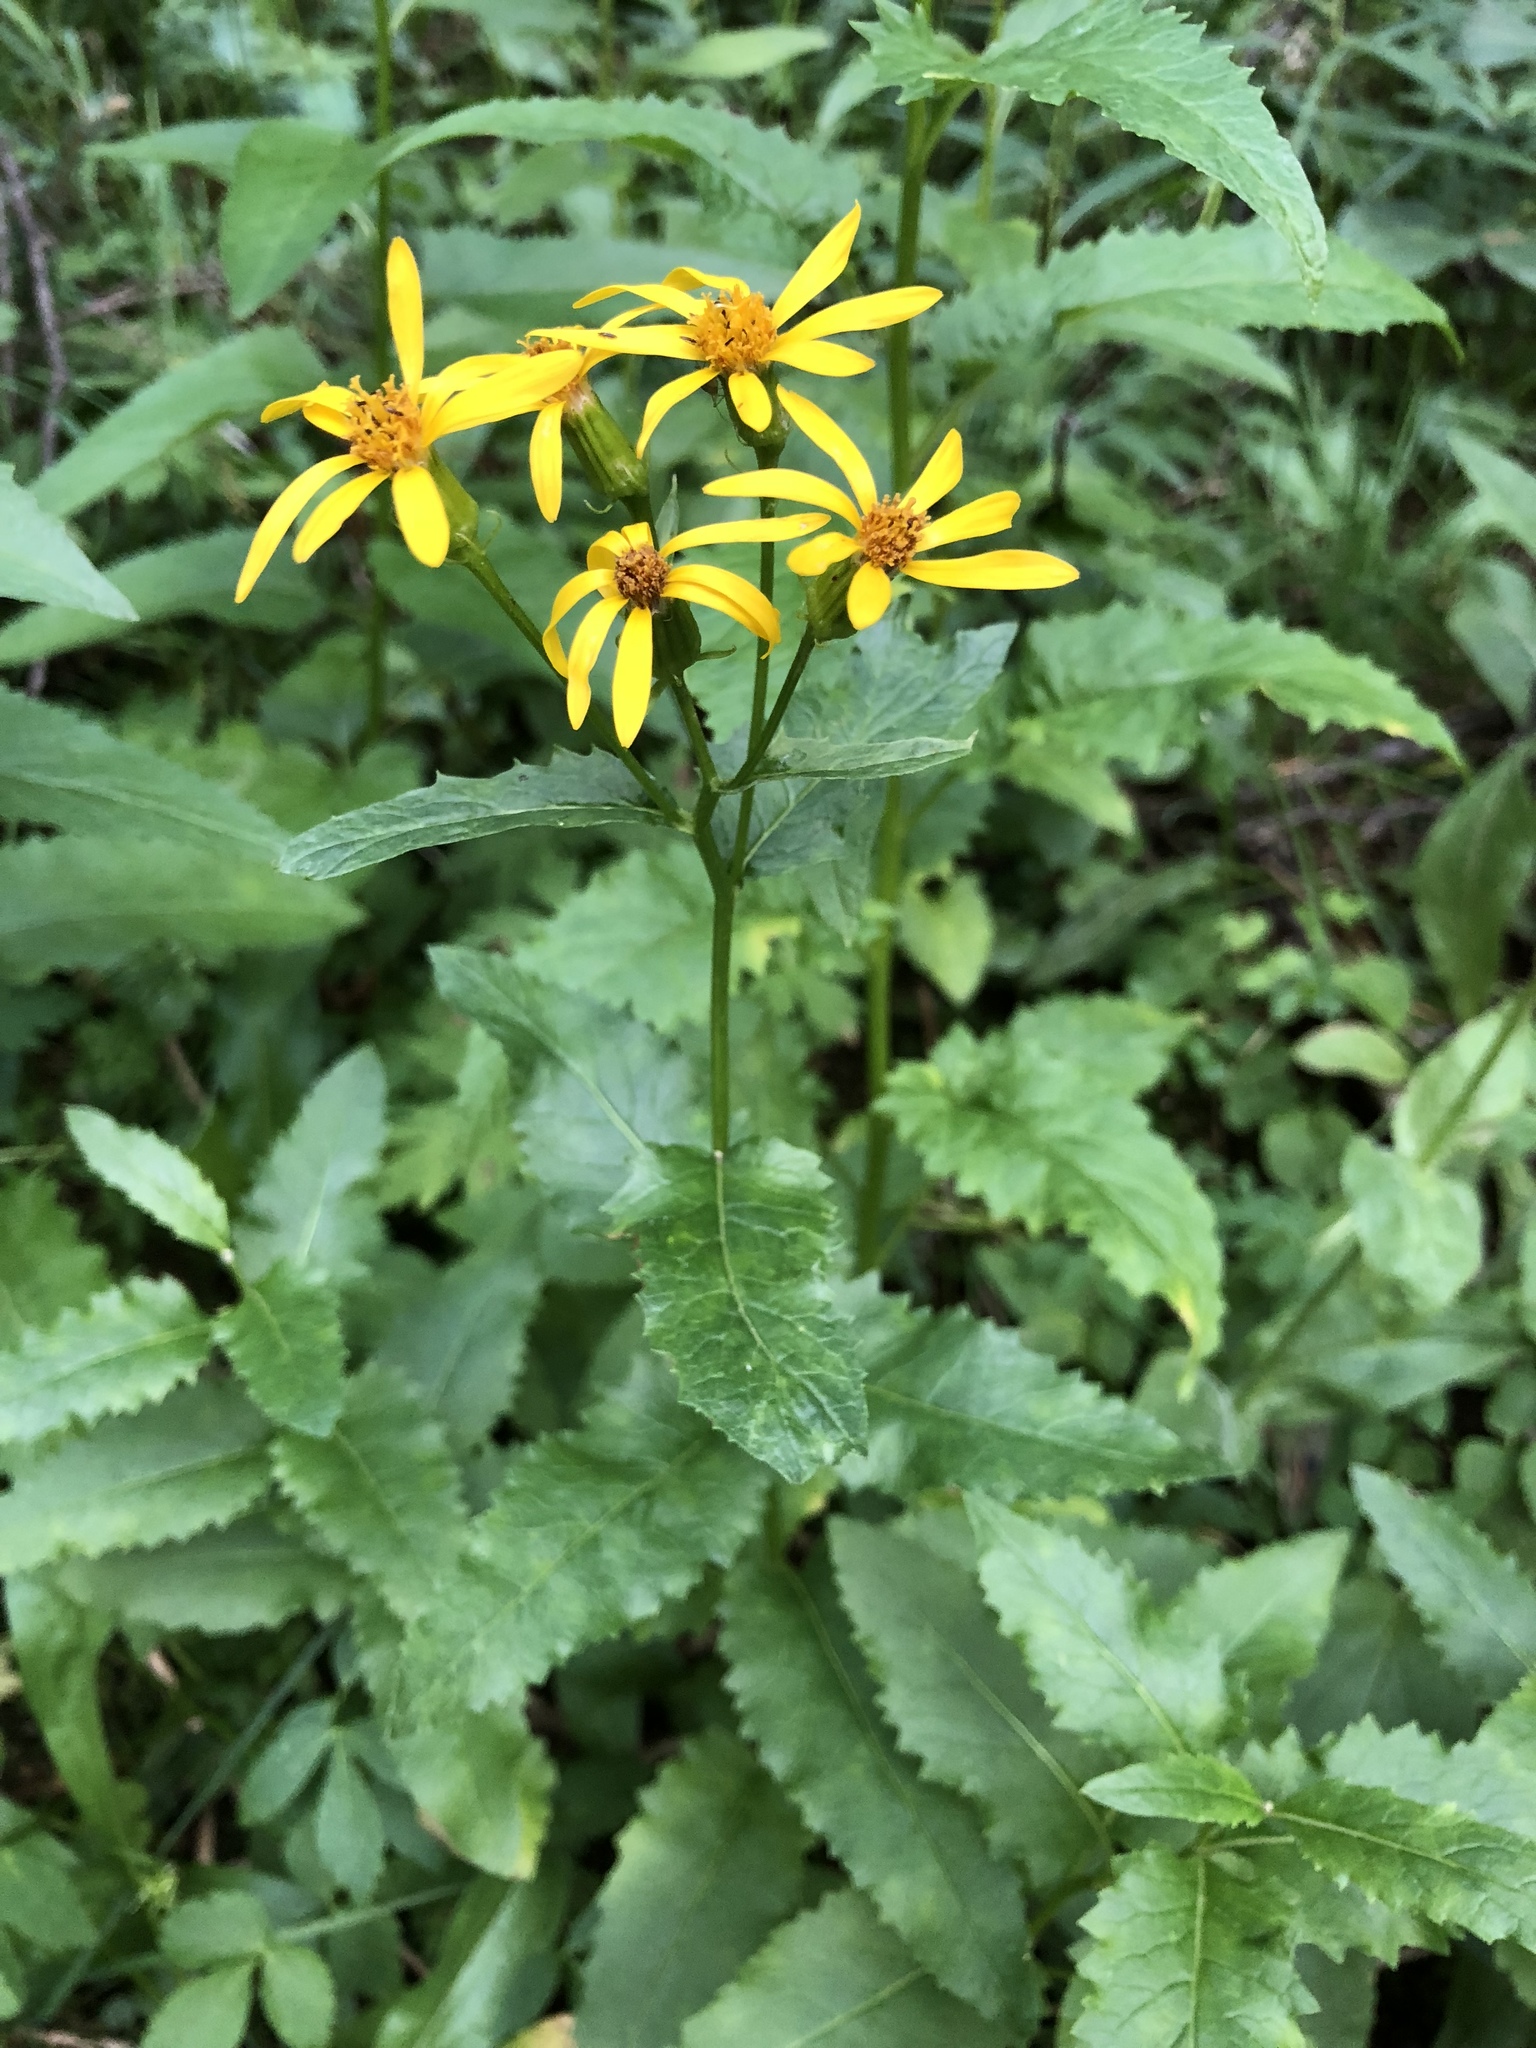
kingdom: Plantae
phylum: Tracheophyta
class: Magnoliopsida
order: Asterales
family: Asteraceae
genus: Senecio
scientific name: Senecio triangularis
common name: Arrowleaf butterweed
